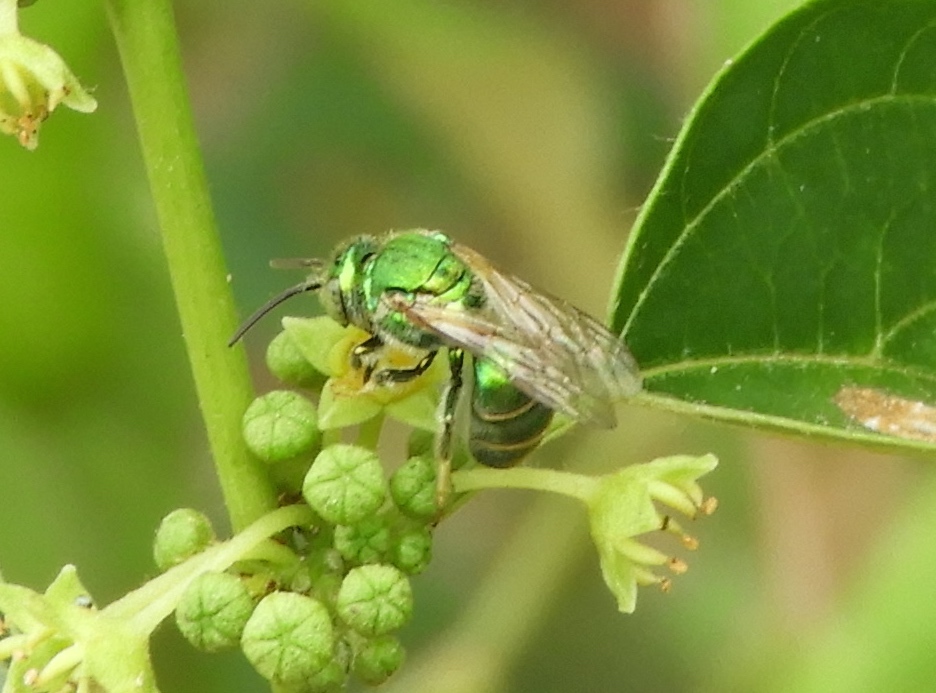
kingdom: Animalia
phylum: Arthropoda
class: Insecta
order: Hymenoptera
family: Halictidae
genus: Augochloropsis
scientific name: Augochloropsis
